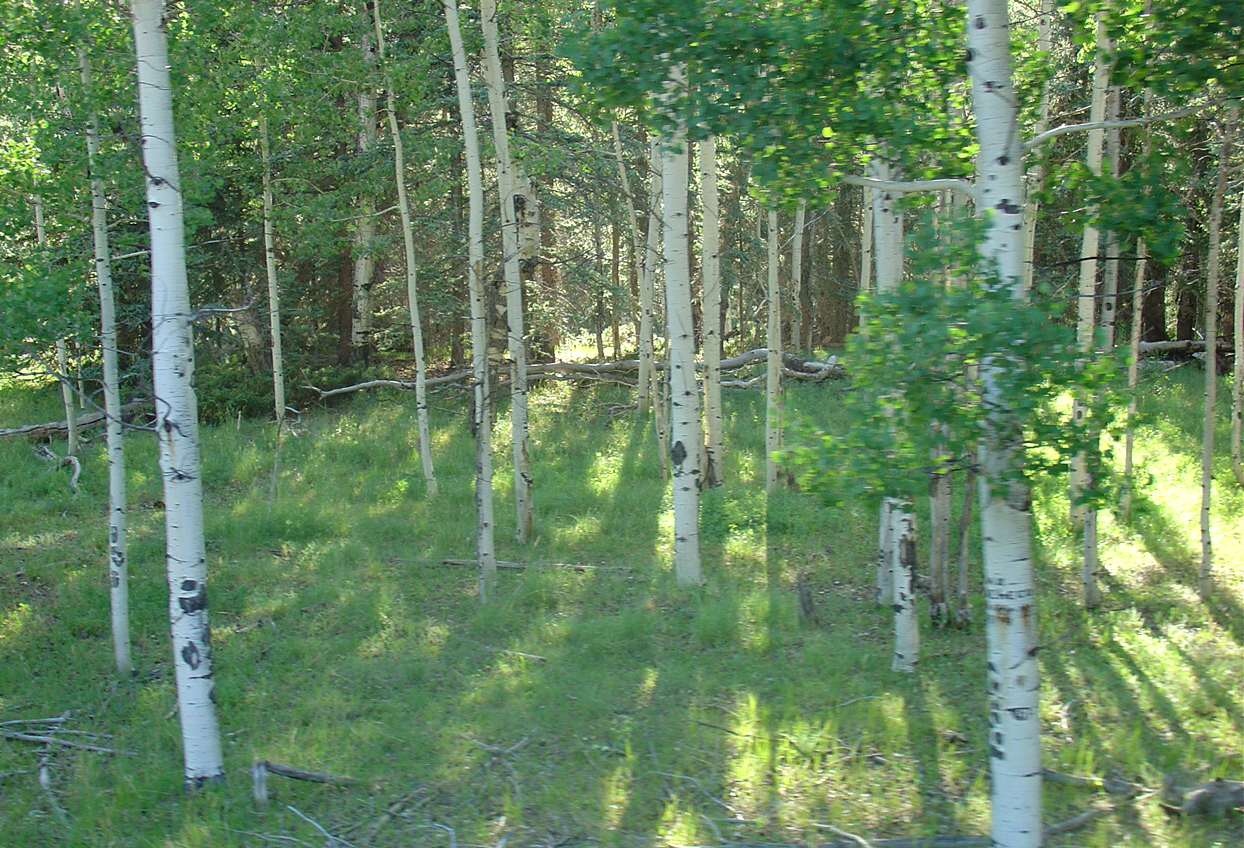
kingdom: Plantae
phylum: Tracheophyta
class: Magnoliopsida
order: Malpighiales
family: Salicaceae
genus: Populus
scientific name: Populus tremuloides
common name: Quaking aspen
